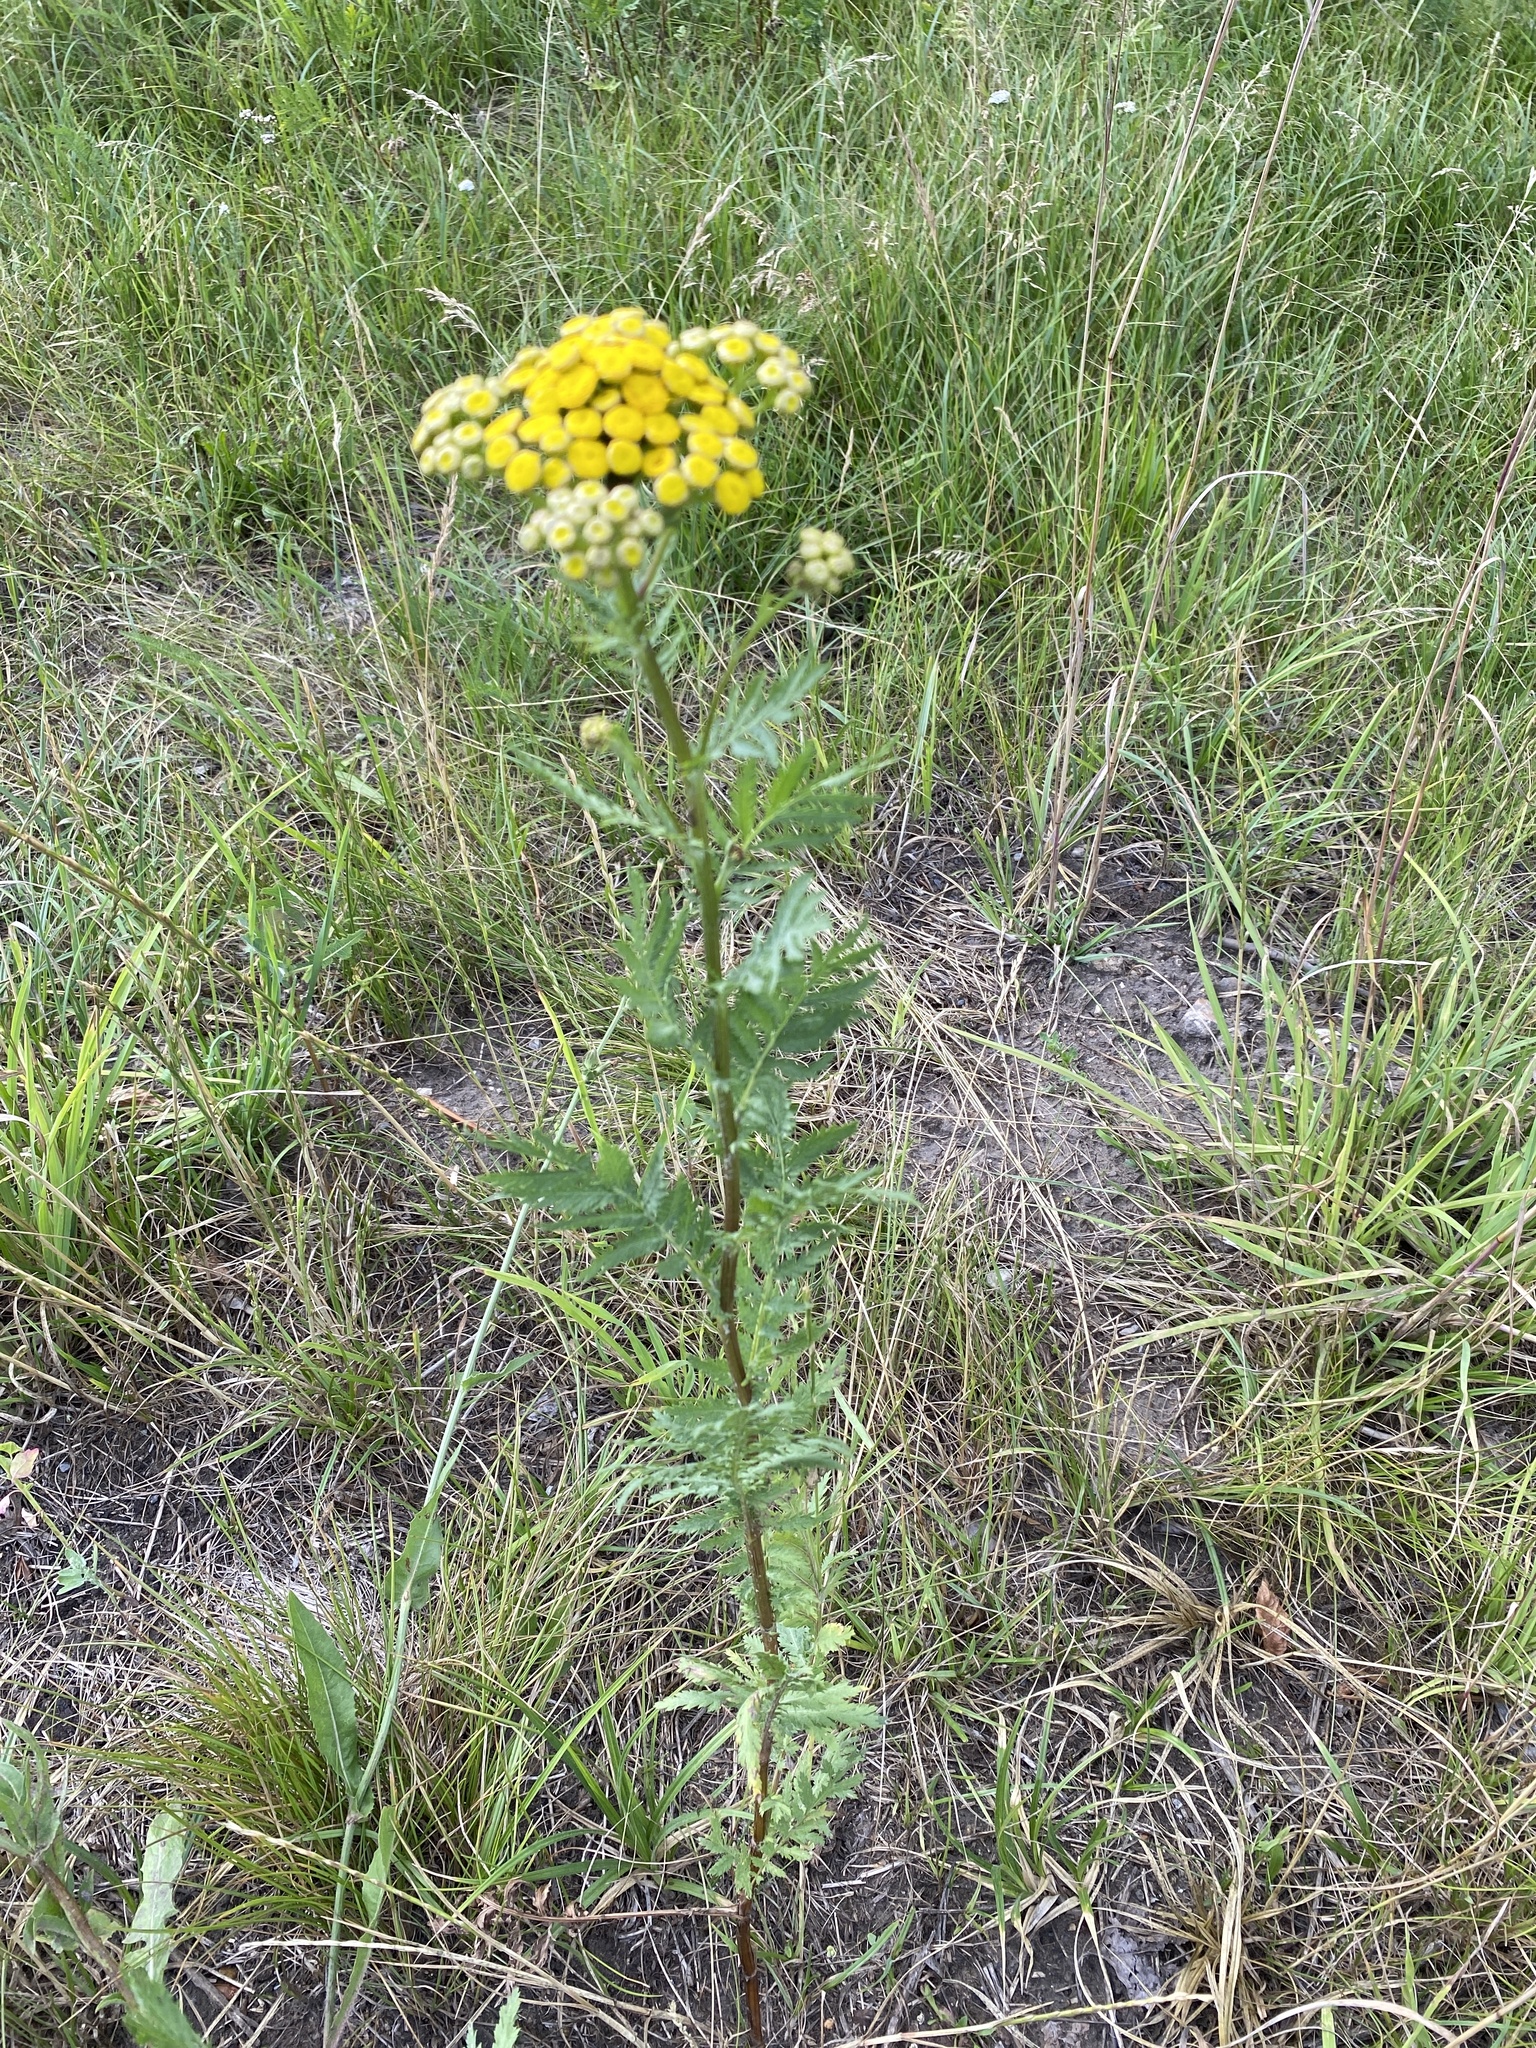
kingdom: Plantae
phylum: Tracheophyta
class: Magnoliopsida
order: Asterales
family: Asteraceae
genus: Tanacetum
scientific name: Tanacetum vulgare
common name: Common tansy
